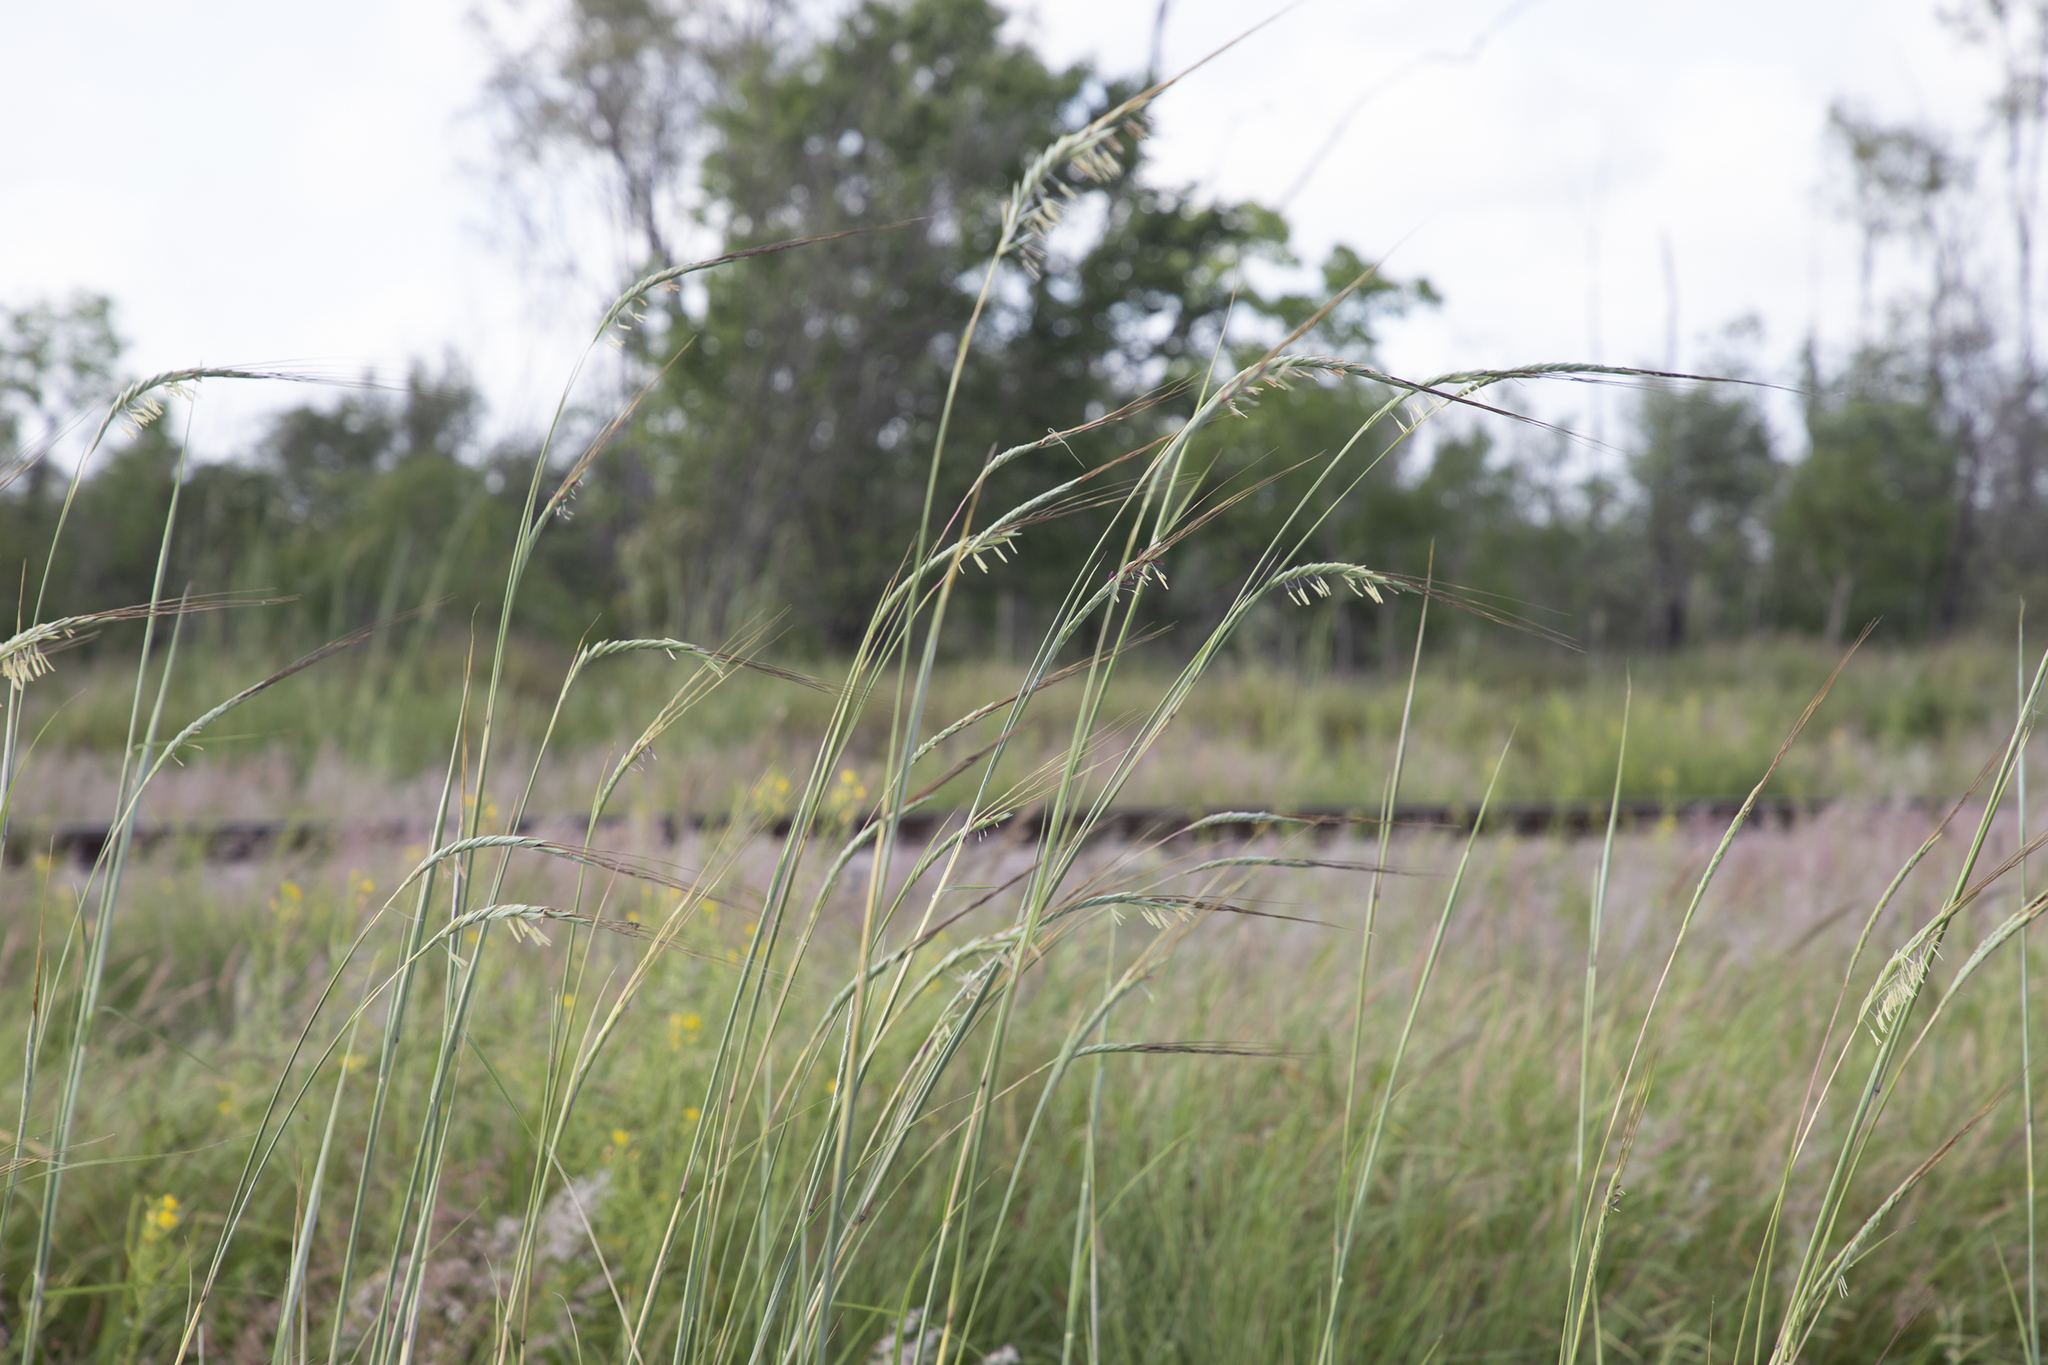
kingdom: Plantae
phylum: Tracheophyta
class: Liliopsida
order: Poales
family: Poaceae
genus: Heteropogon
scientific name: Heteropogon triticeus
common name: Sugar grass
